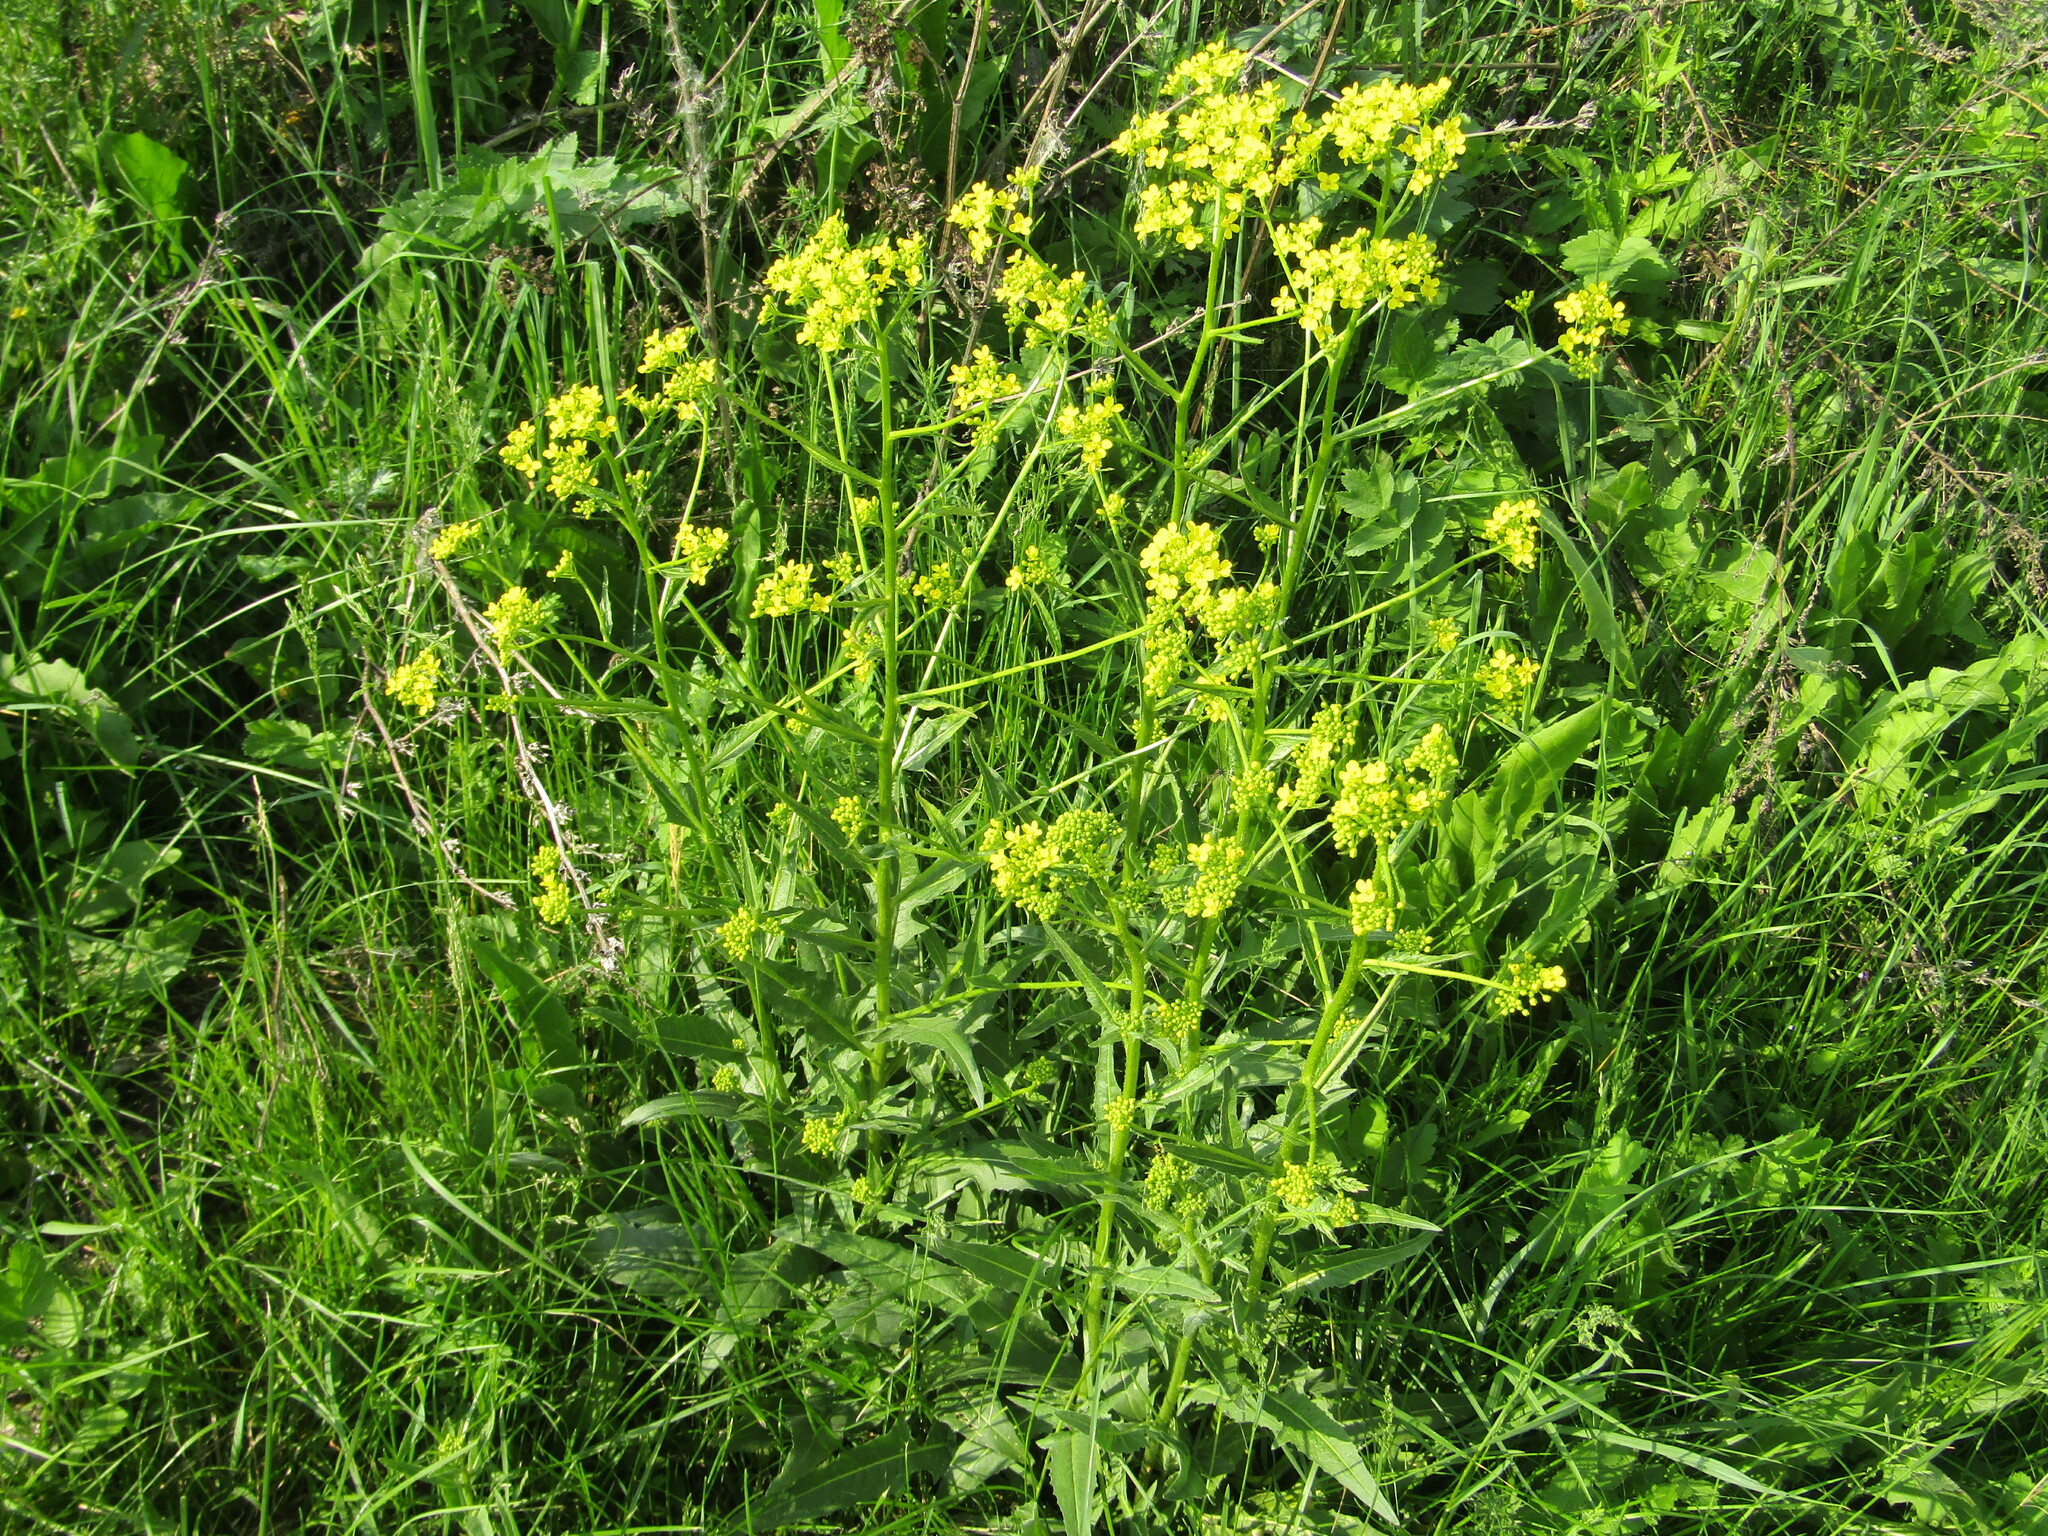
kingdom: Plantae
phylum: Tracheophyta
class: Magnoliopsida
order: Brassicales
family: Brassicaceae
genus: Bunias
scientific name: Bunias orientalis
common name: Warty-cabbage
